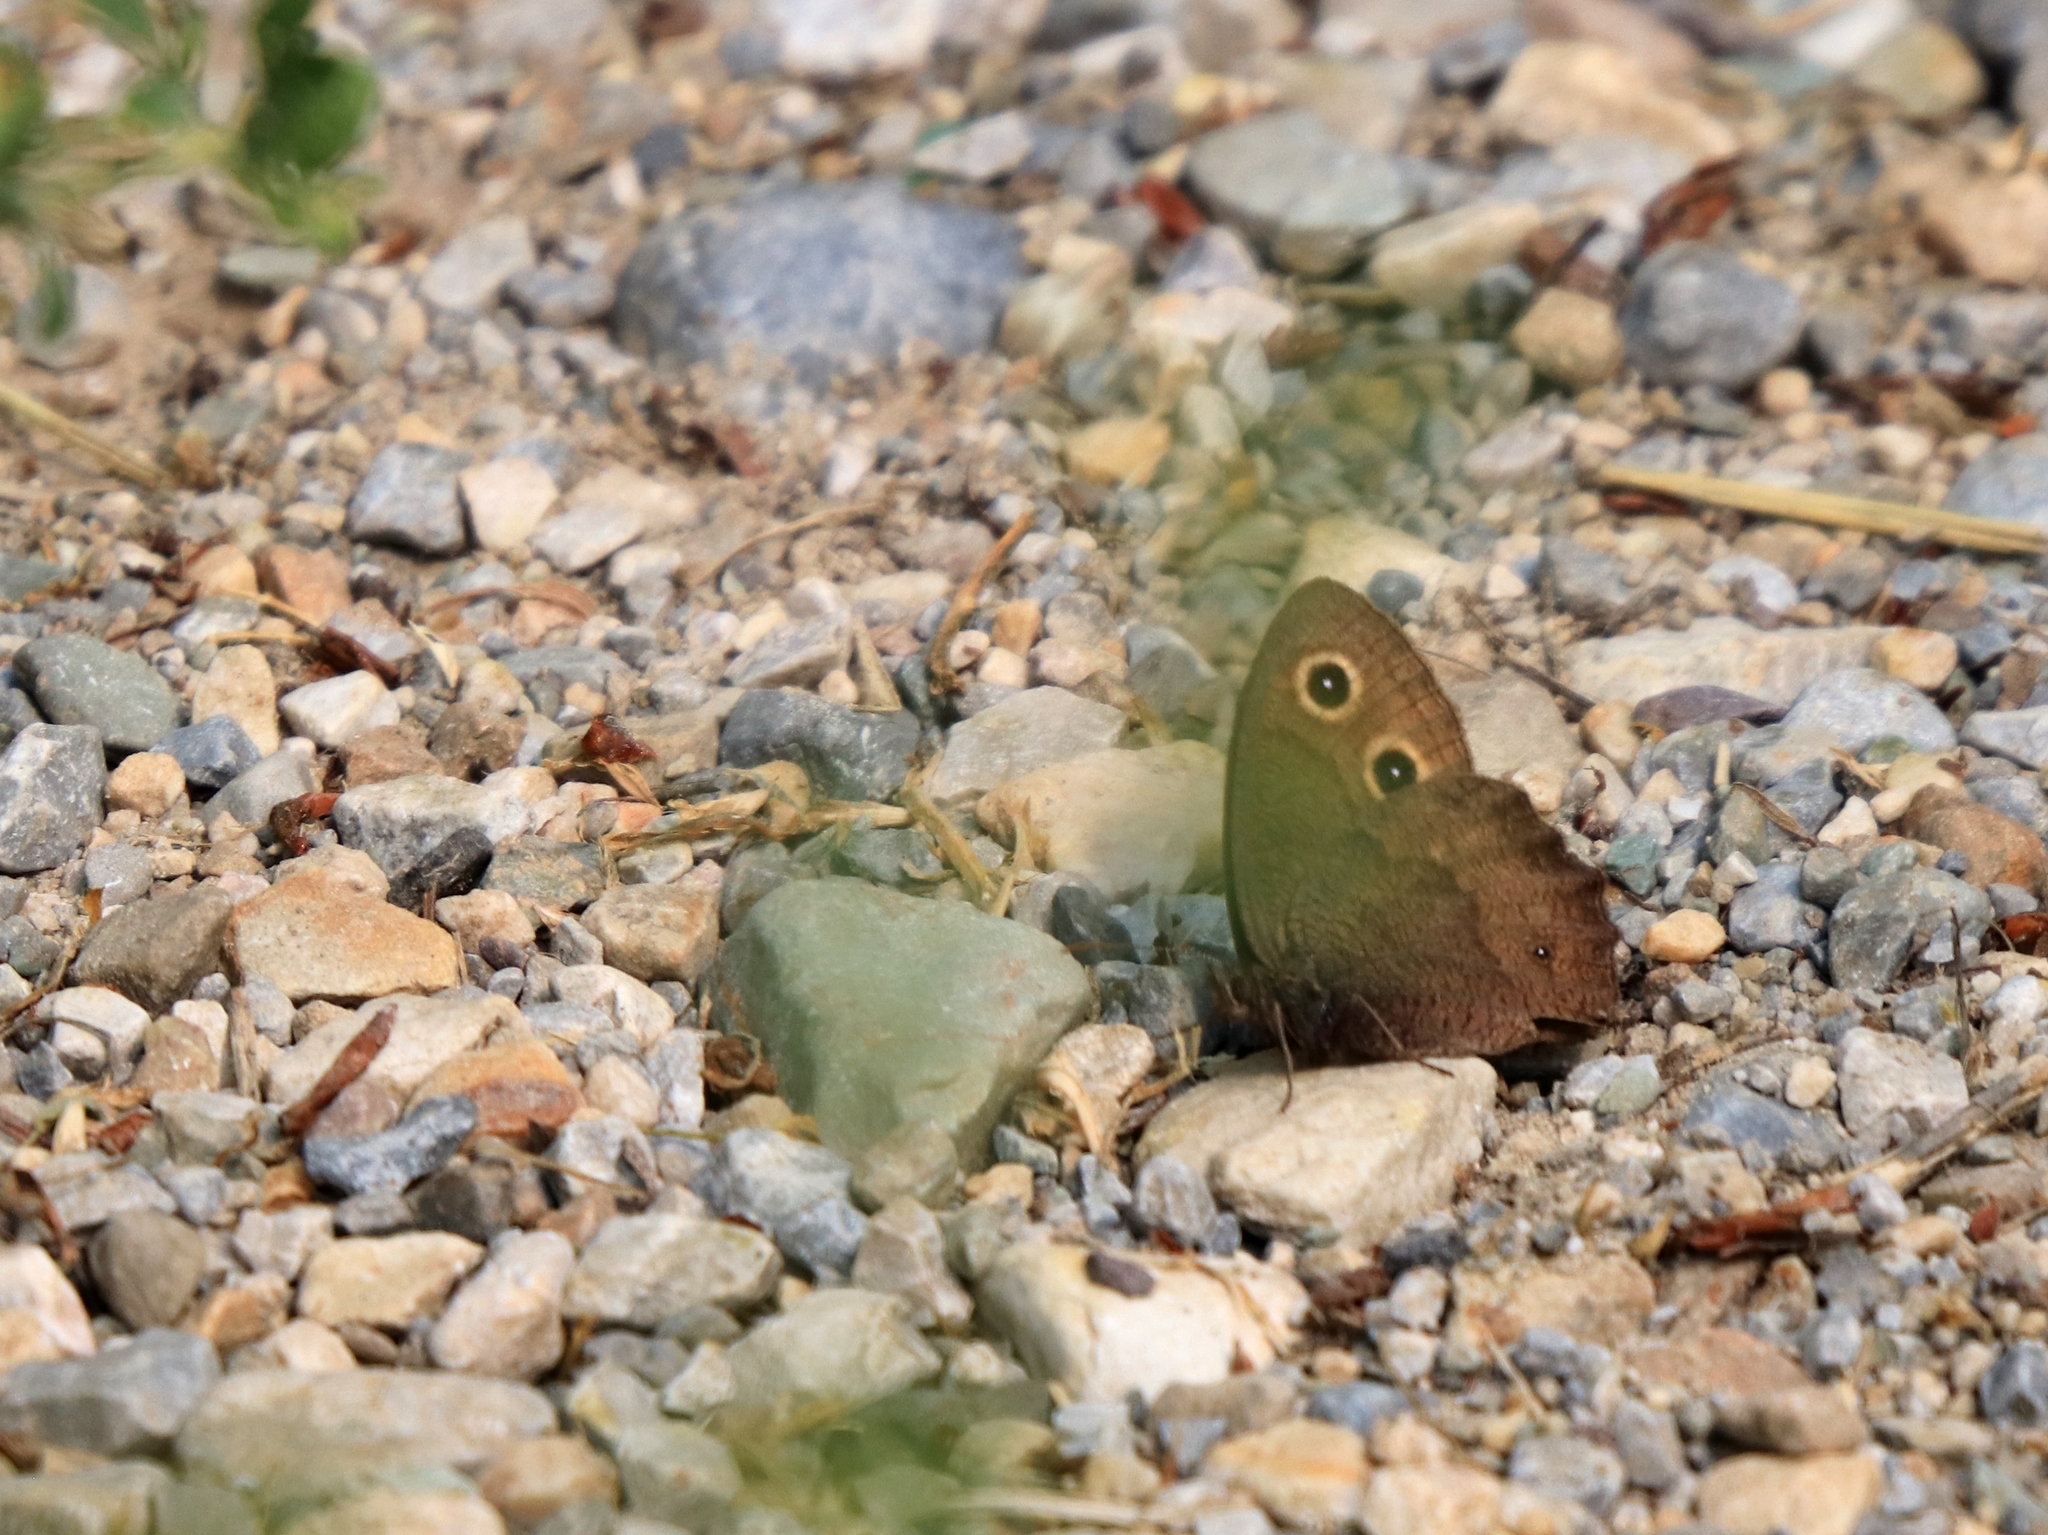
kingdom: Animalia
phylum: Arthropoda
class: Insecta
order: Lepidoptera
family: Nymphalidae
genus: Cercyonis
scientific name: Cercyonis pegala
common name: Common wood-nymph
